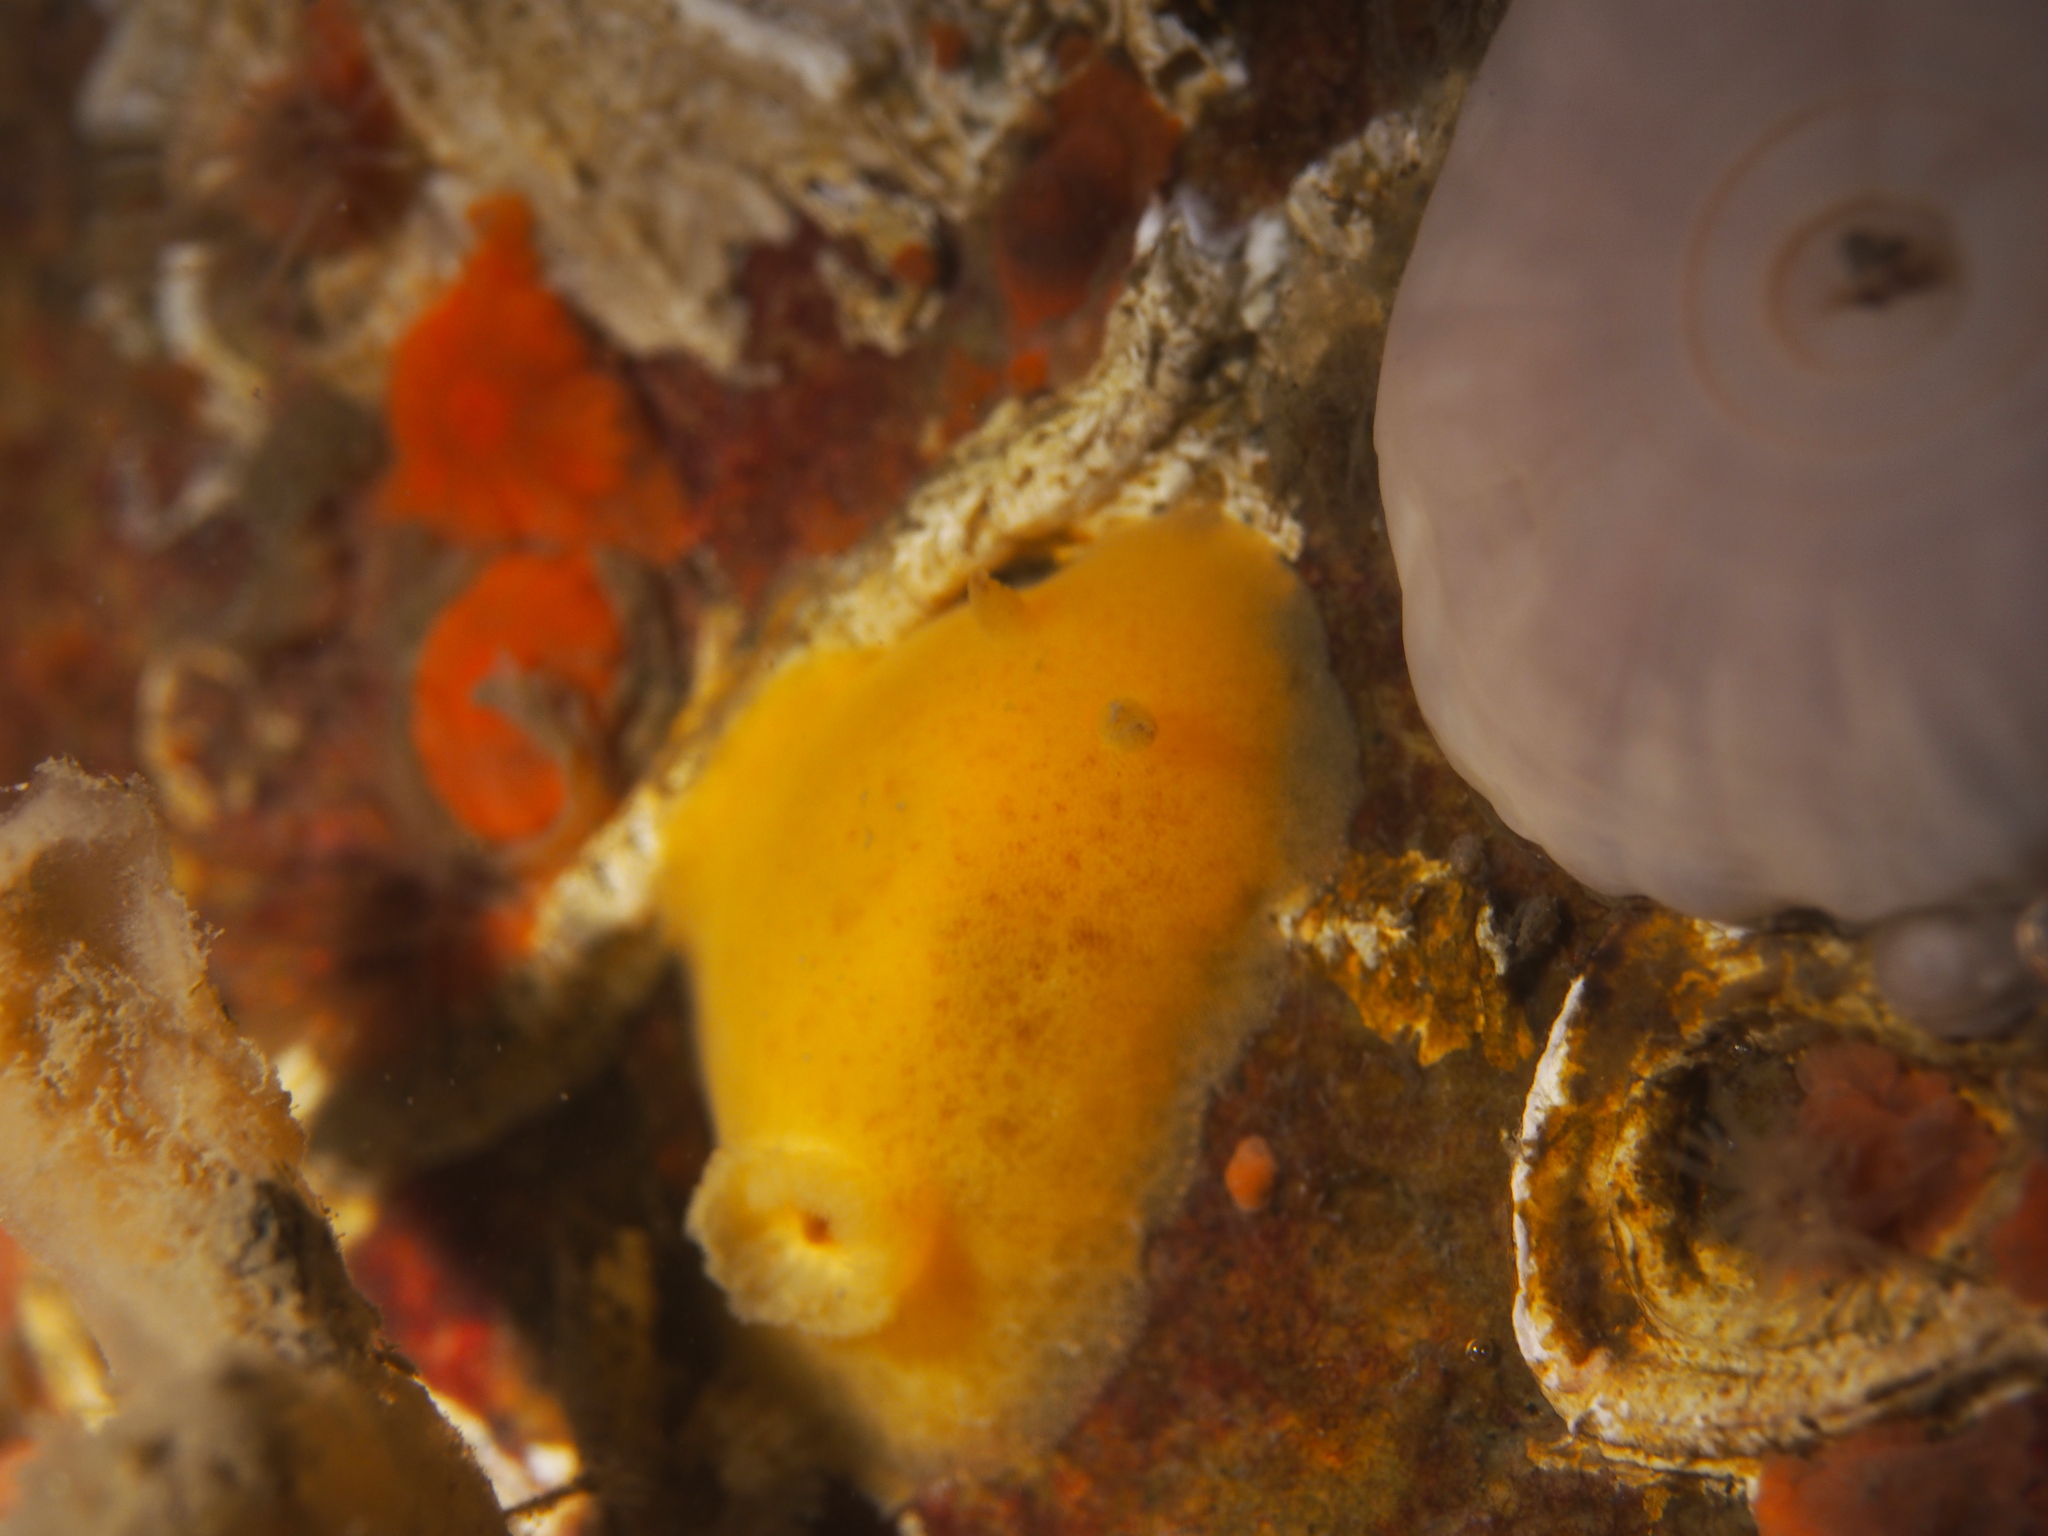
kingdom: Animalia
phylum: Mollusca
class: Gastropoda
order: Nudibranchia
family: Discodorididae
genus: Jorunna
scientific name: Jorunna tomentosa
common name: Grey sea slug
